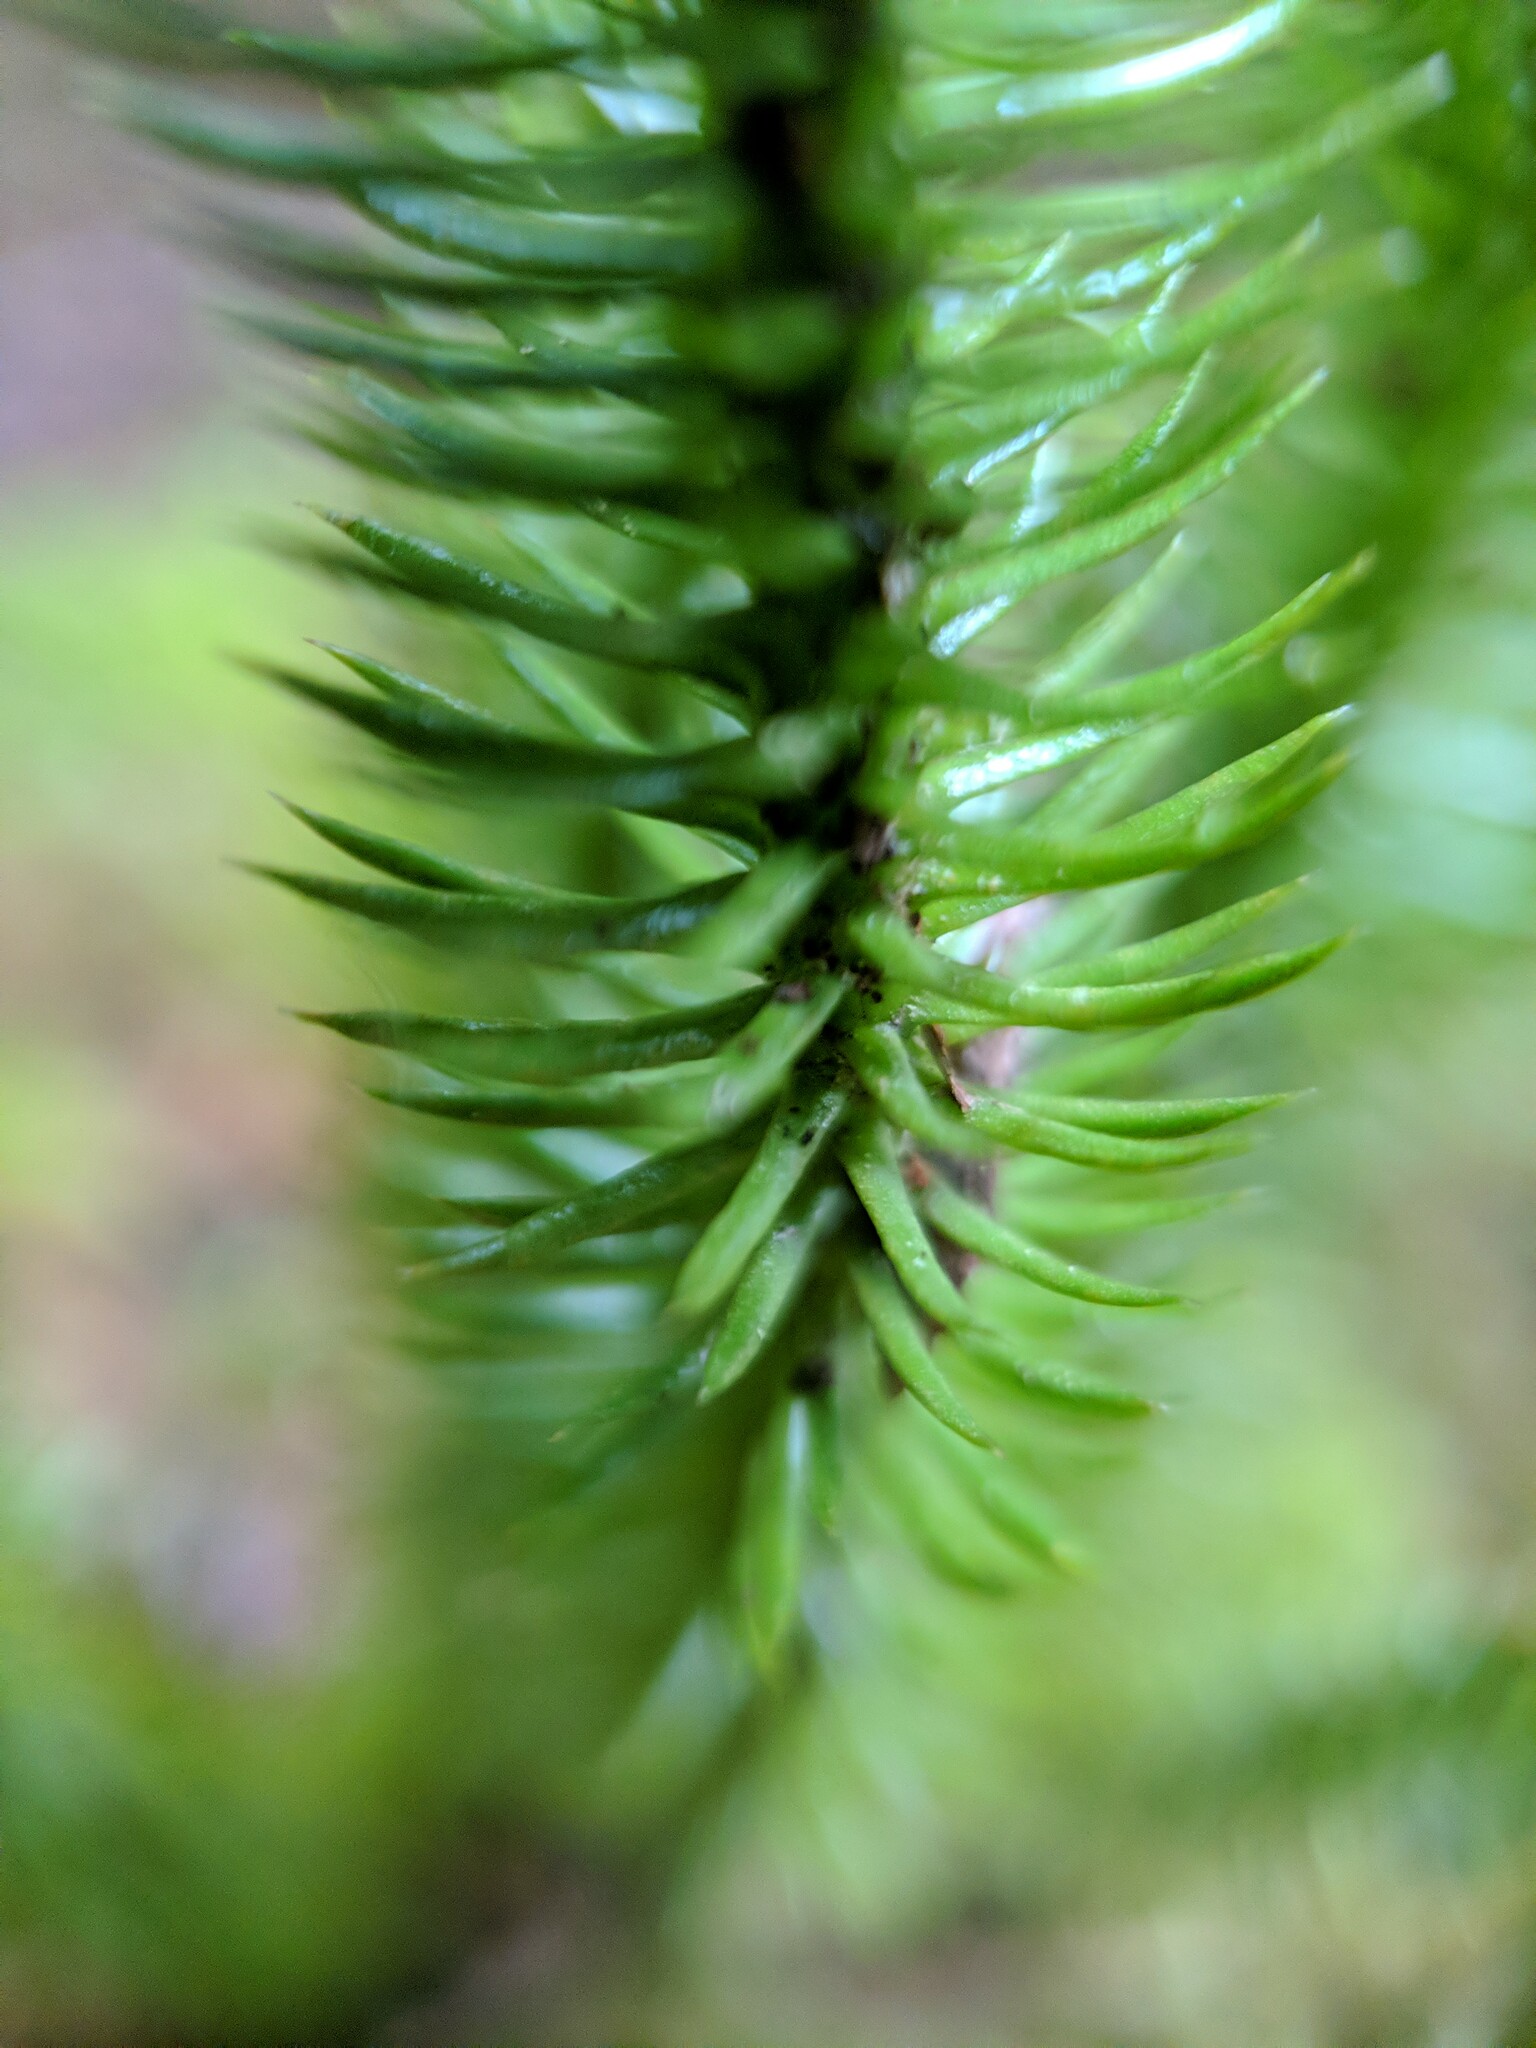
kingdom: Plantae
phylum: Tracheophyta
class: Lycopodiopsida
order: Lycopodiales
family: Lycopodiaceae
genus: Huperzia
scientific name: Huperzia miyoshiana
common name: Chinese clubmoss
